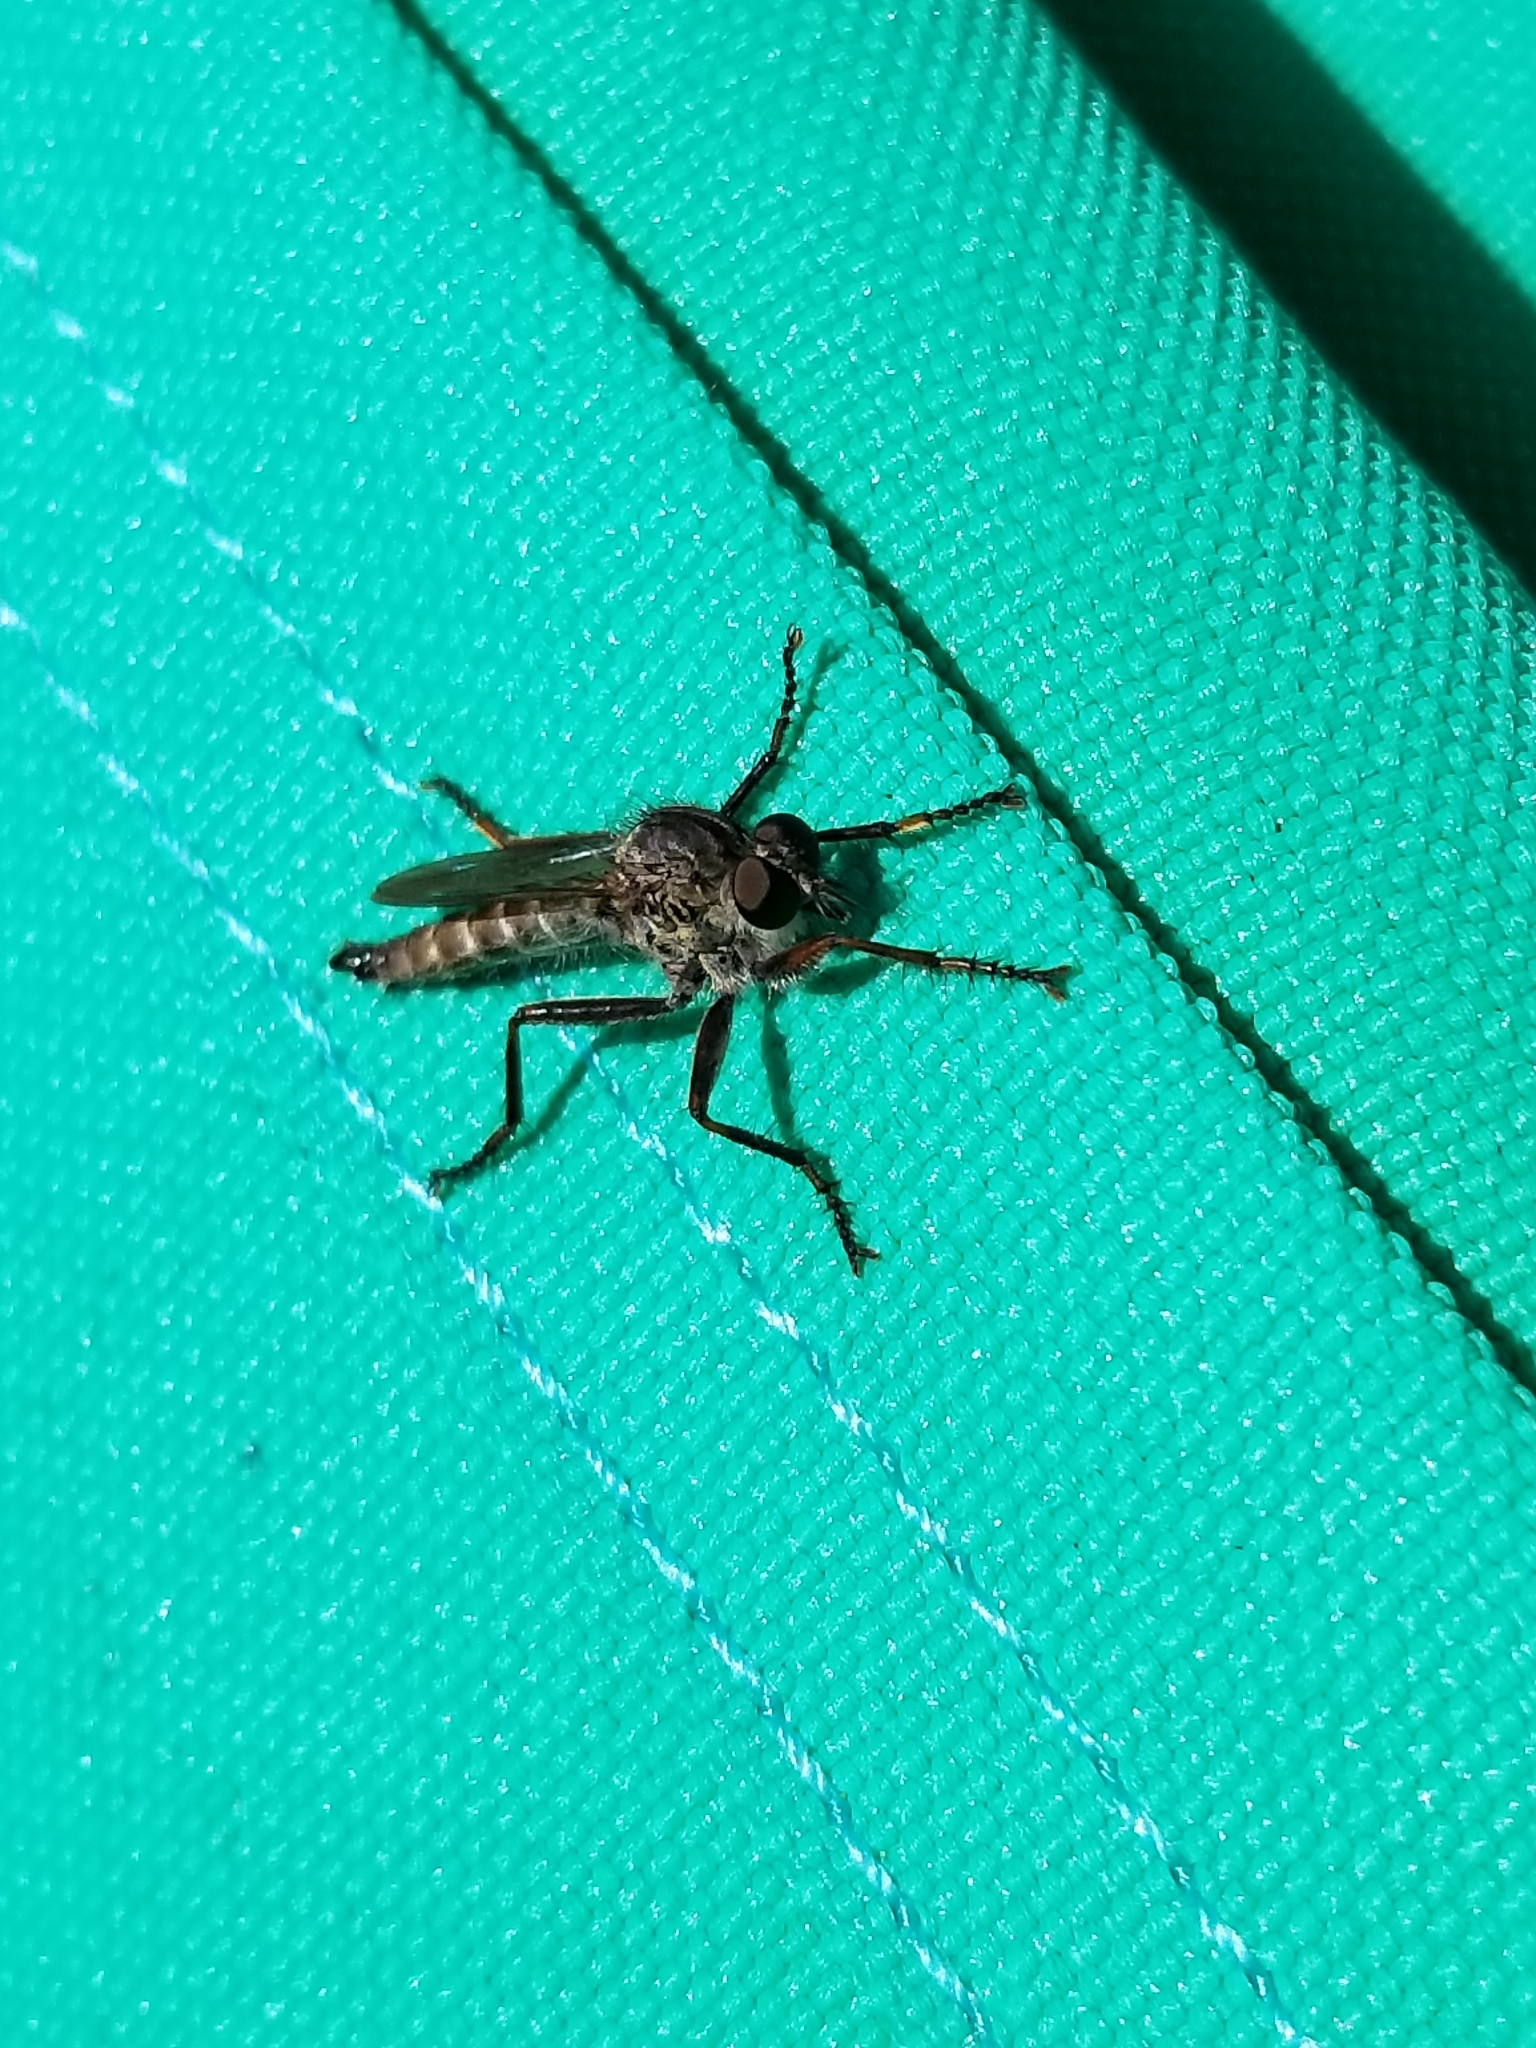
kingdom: Animalia
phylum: Arthropoda
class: Insecta
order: Diptera
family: Asilidae
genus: Machimus
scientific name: Machimus atricapillus
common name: Kite-tailed robberfly
